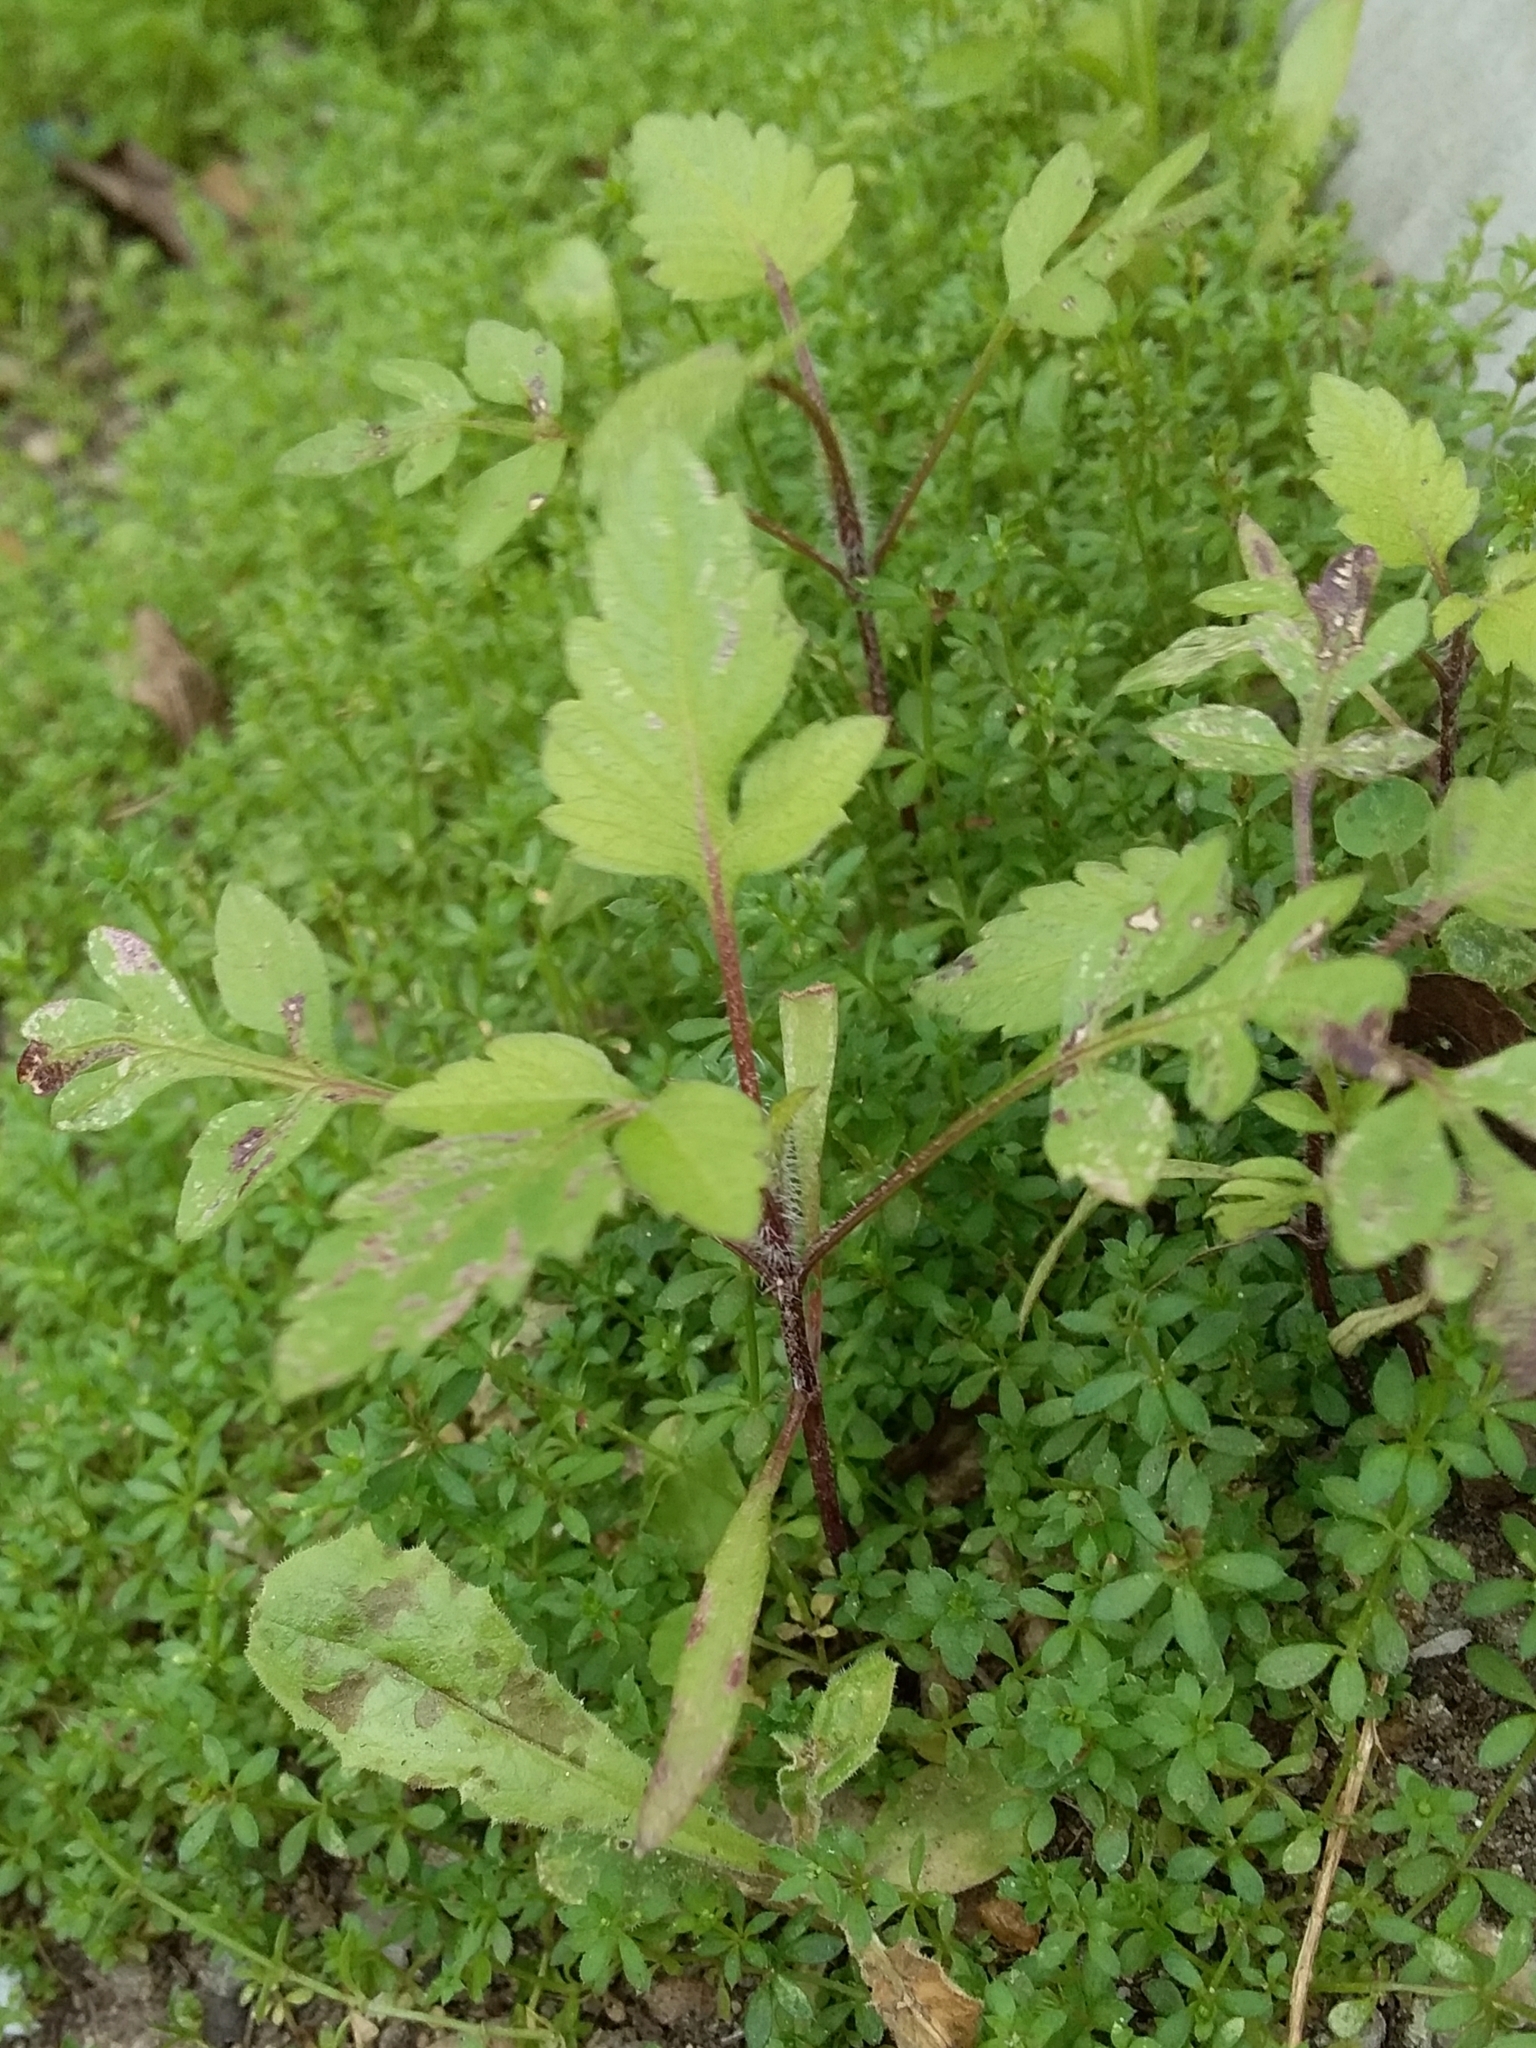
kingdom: Plantae
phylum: Tracheophyta
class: Magnoliopsida
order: Asterales
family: Asteraceae
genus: Bidens
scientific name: Bidens pilosa
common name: Black-jack
